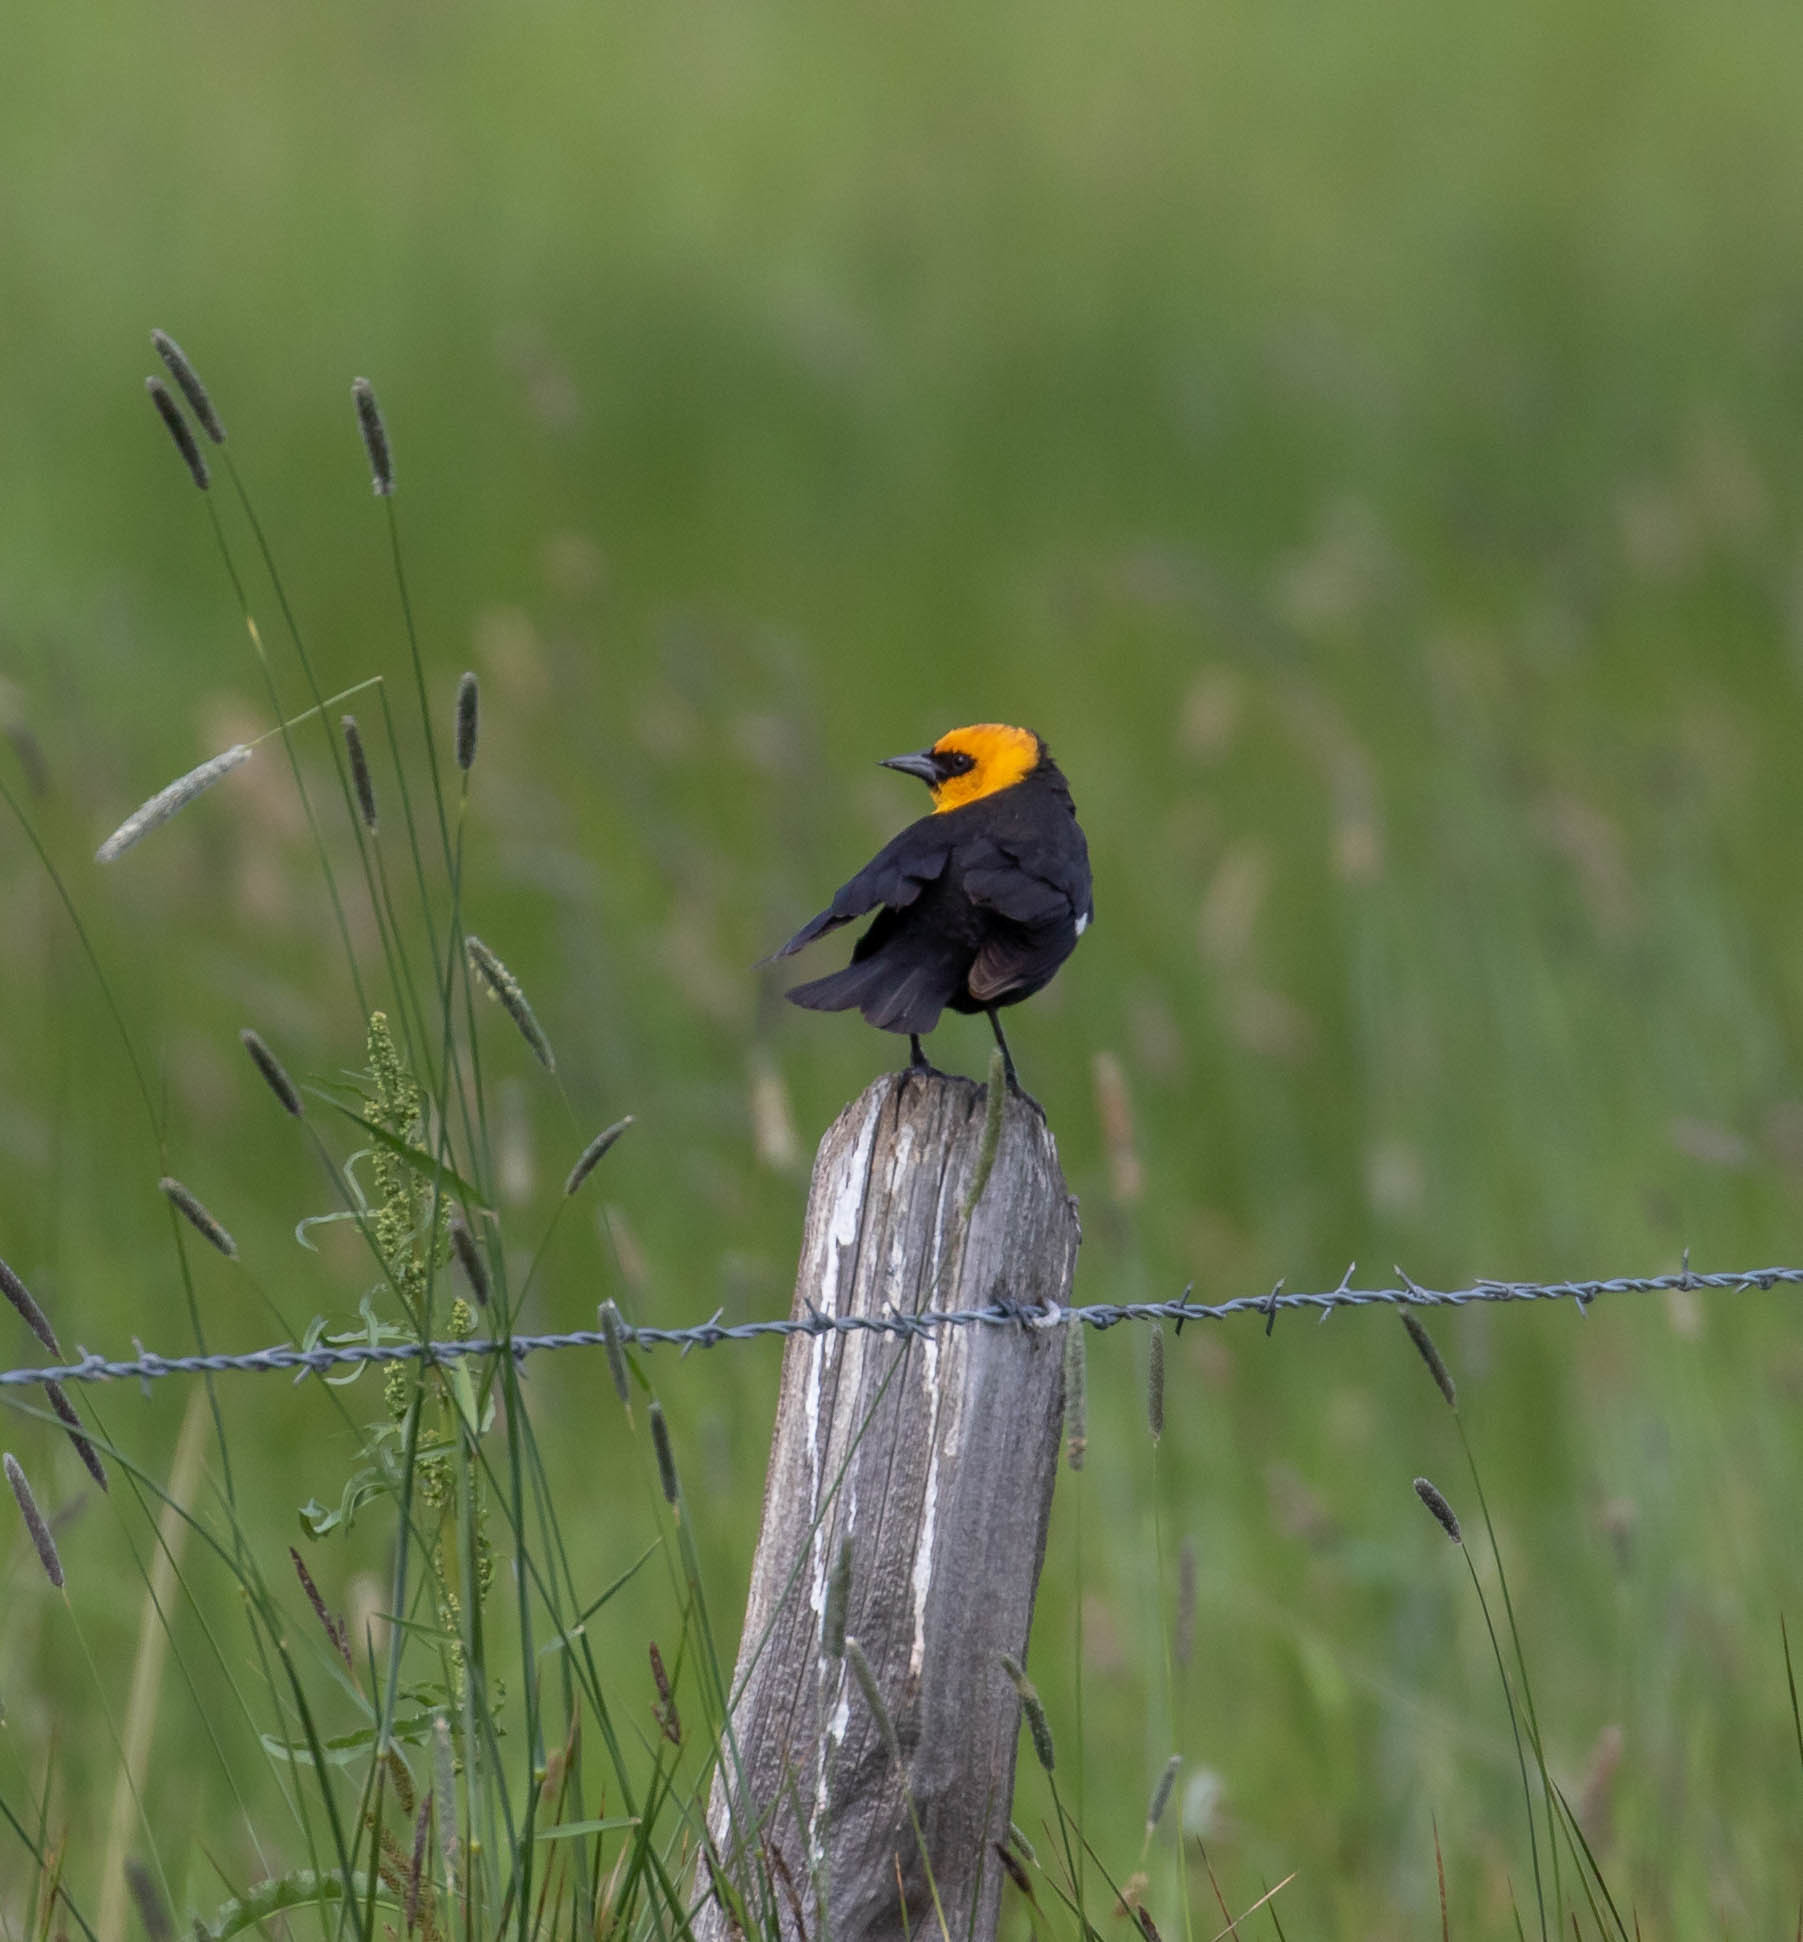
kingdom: Animalia
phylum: Chordata
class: Aves
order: Passeriformes
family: Icteridae
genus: Xanthocephalus
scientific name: Xanthocephalus xanthocephalus
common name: Yellow-headed blackbird
